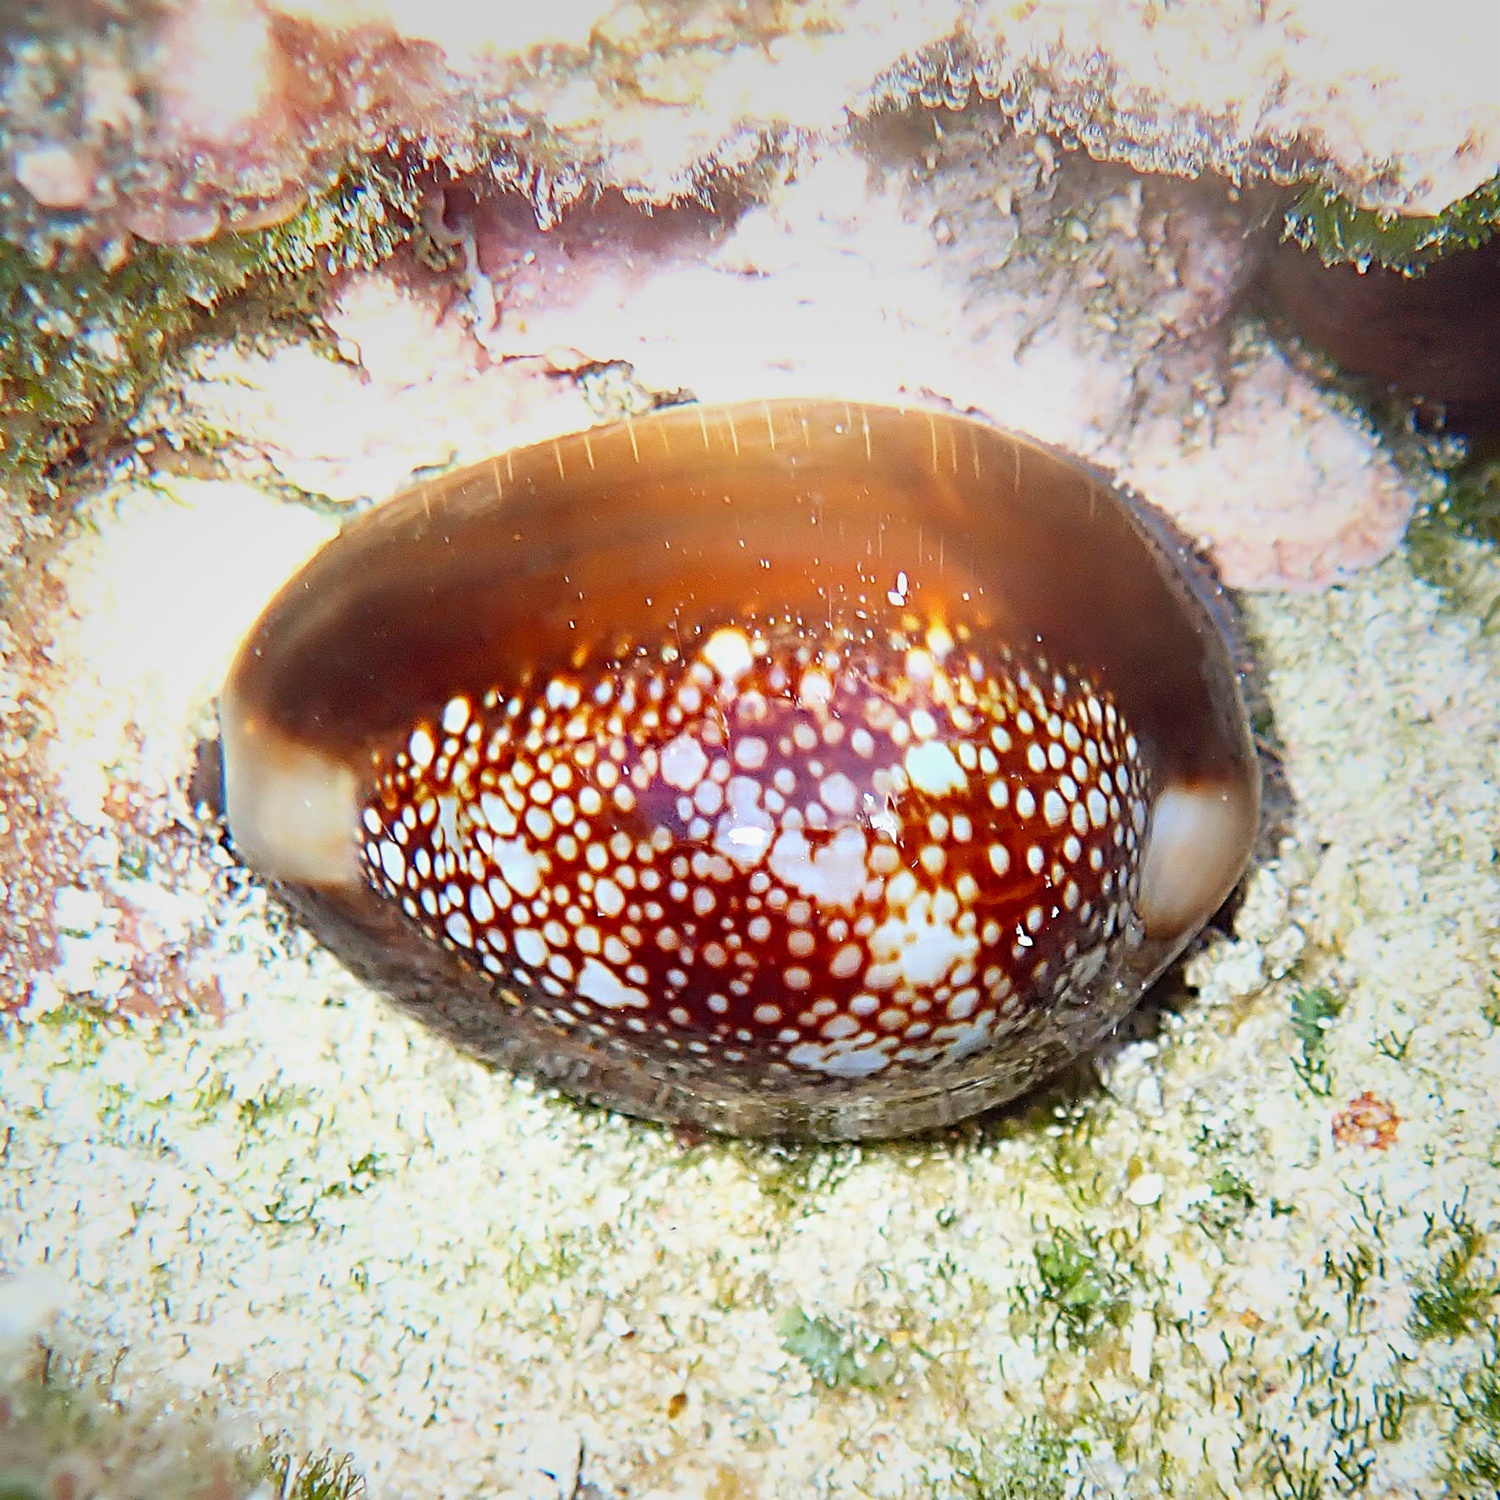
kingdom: Animalia
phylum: Mollusca
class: Gastropoda
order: Littorinimorpha
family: Cypraeidae
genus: Monetaria
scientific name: Monetaria caputserpentis
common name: Serpent's head cowrie
